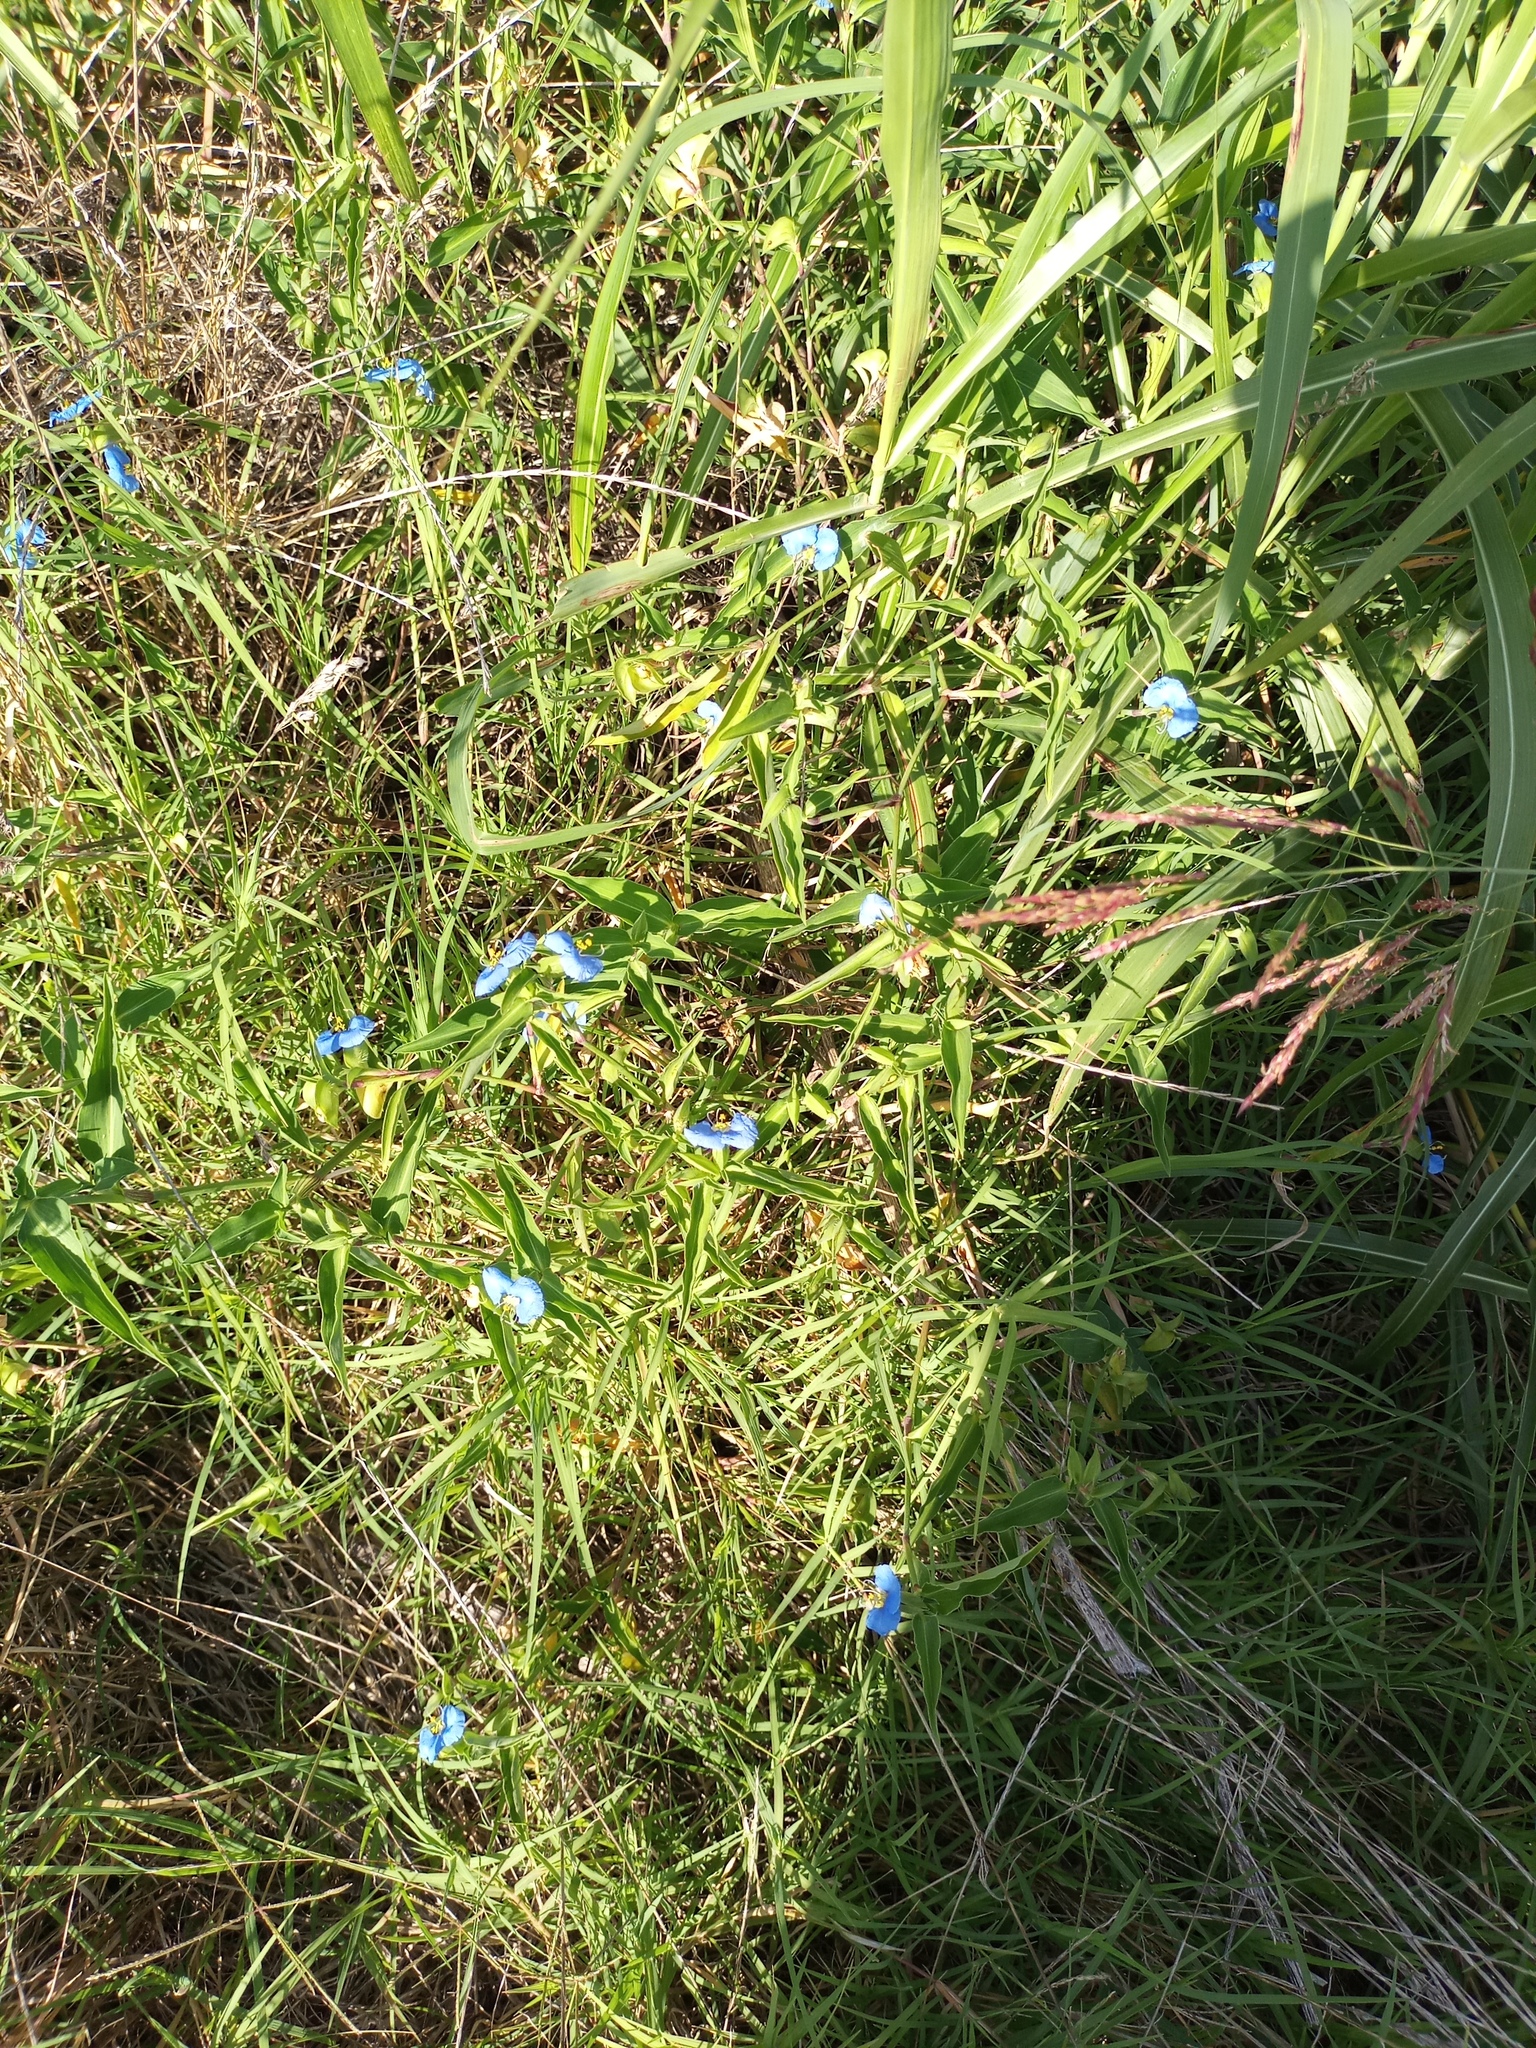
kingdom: Plantae
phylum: Tracheophyta
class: Liliopsida
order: Commelinales
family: Commelinaceae
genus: Commelina
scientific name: Commelina erecta
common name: Blousel blommetjie
